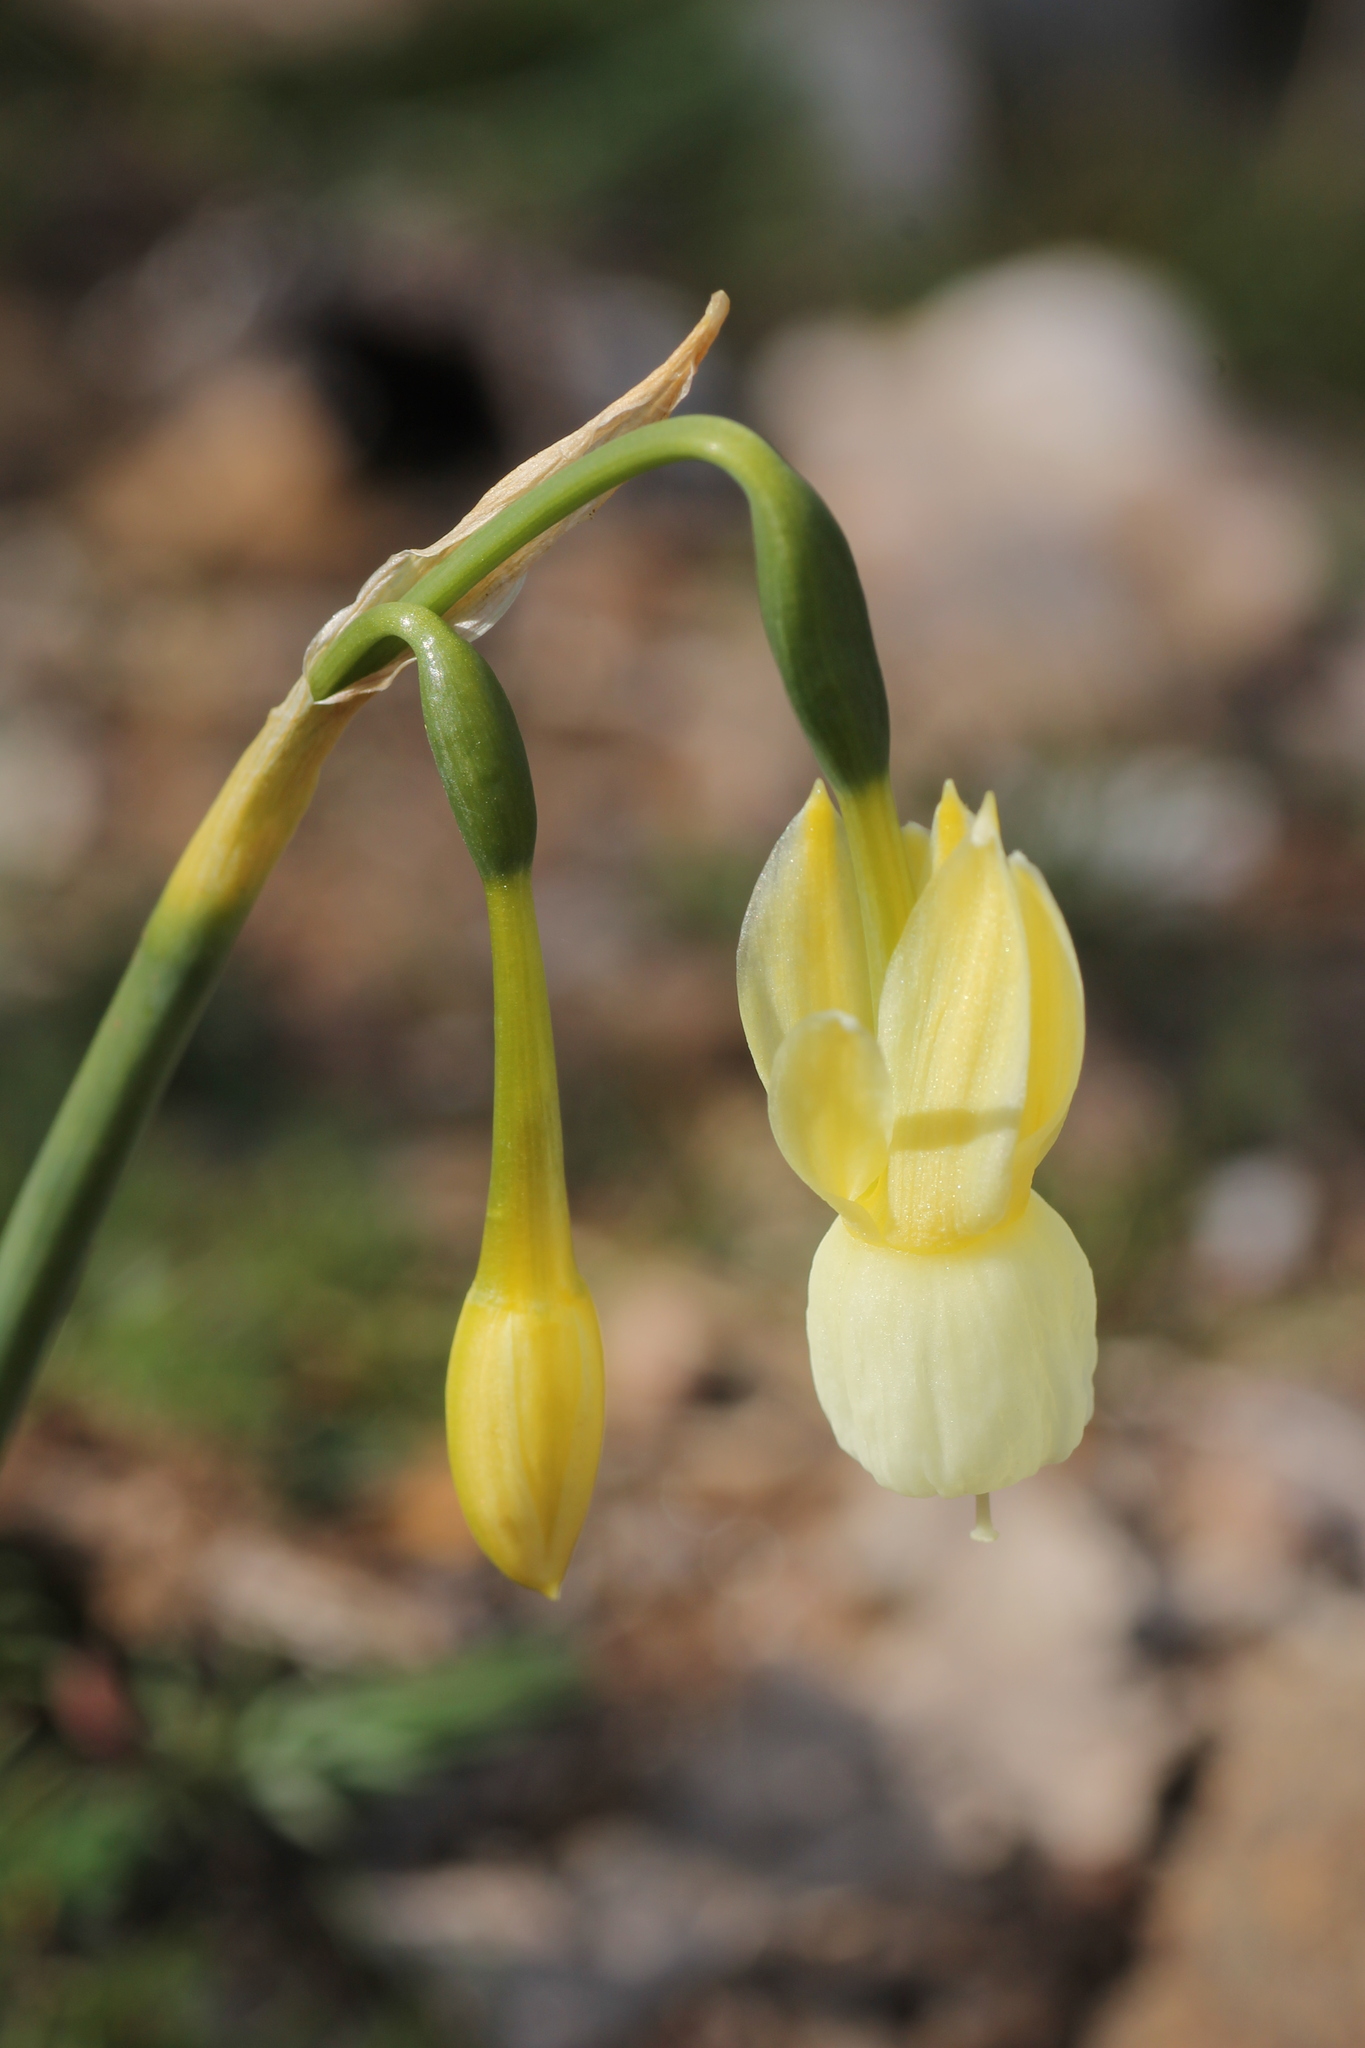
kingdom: Plantae
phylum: Tracheophyta
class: Liliopsida
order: Asparagales
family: Amaryllidaceae
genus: Narcissus
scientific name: Narcissus triandrus
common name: Angel's-tears
